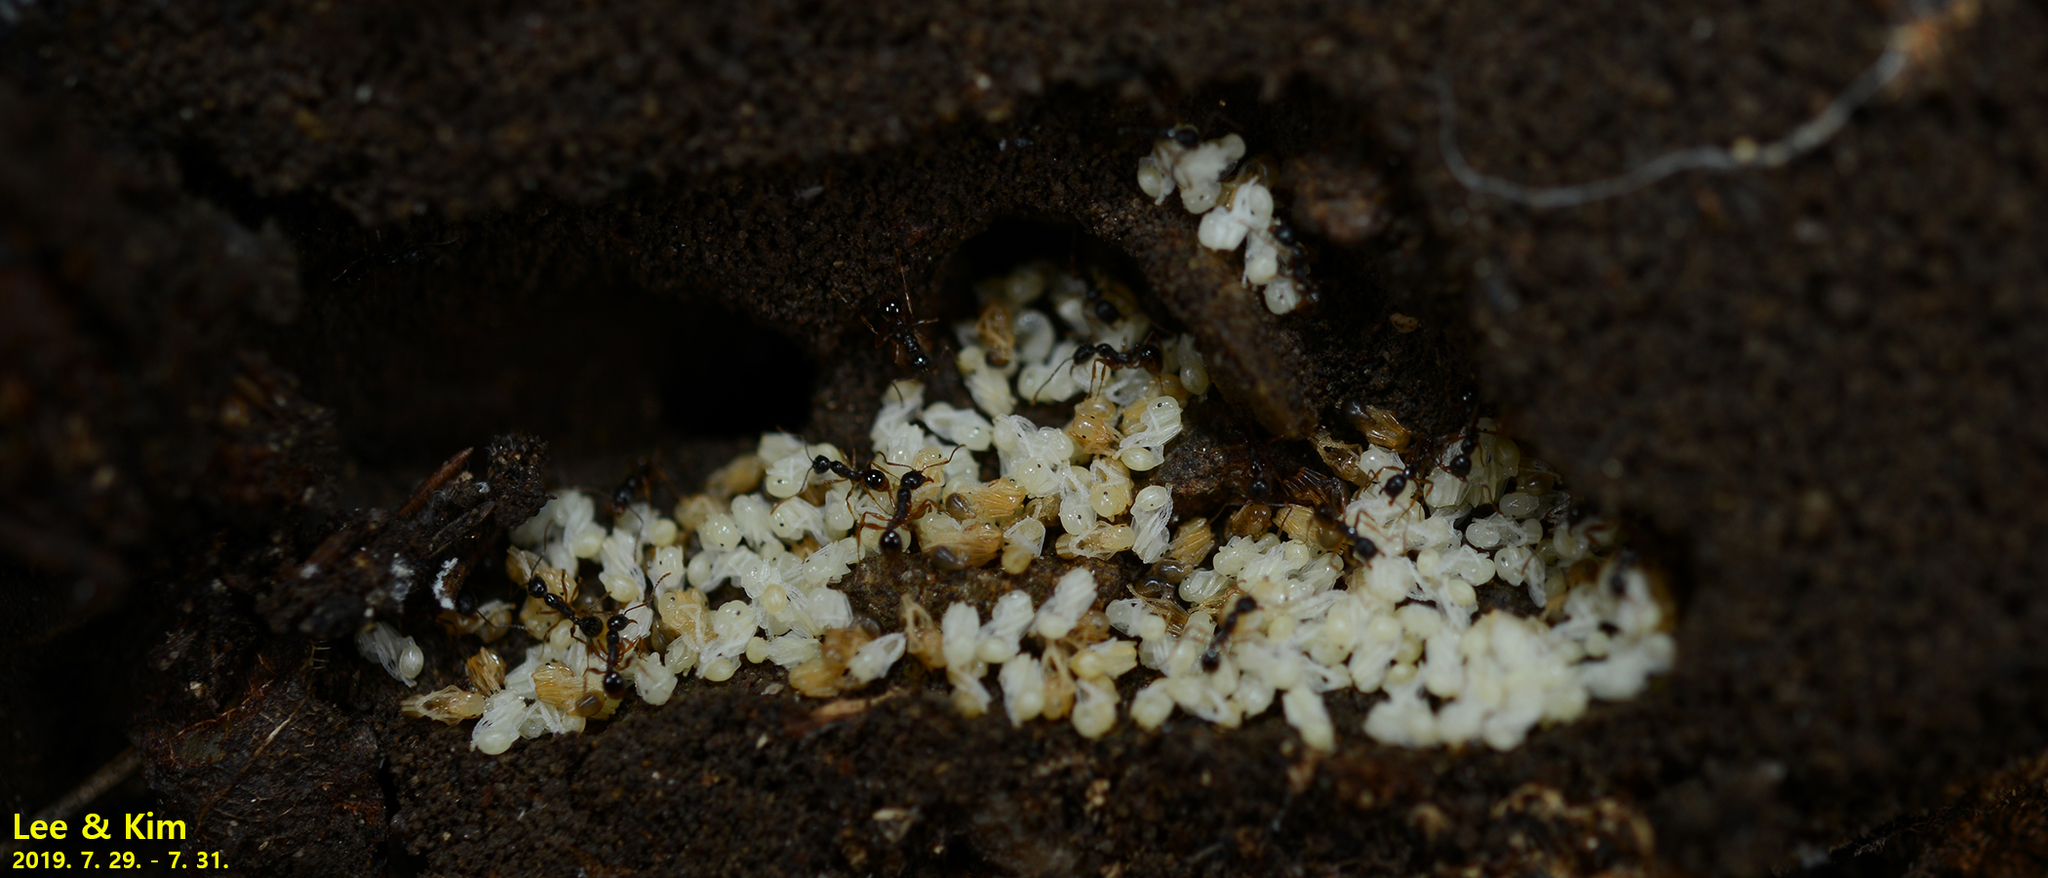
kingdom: Animalia
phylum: Arthropoda
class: Insecta
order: Hymenoptera
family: Formicidae
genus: Aphaenogaster
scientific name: Aphaenogaster japonica
